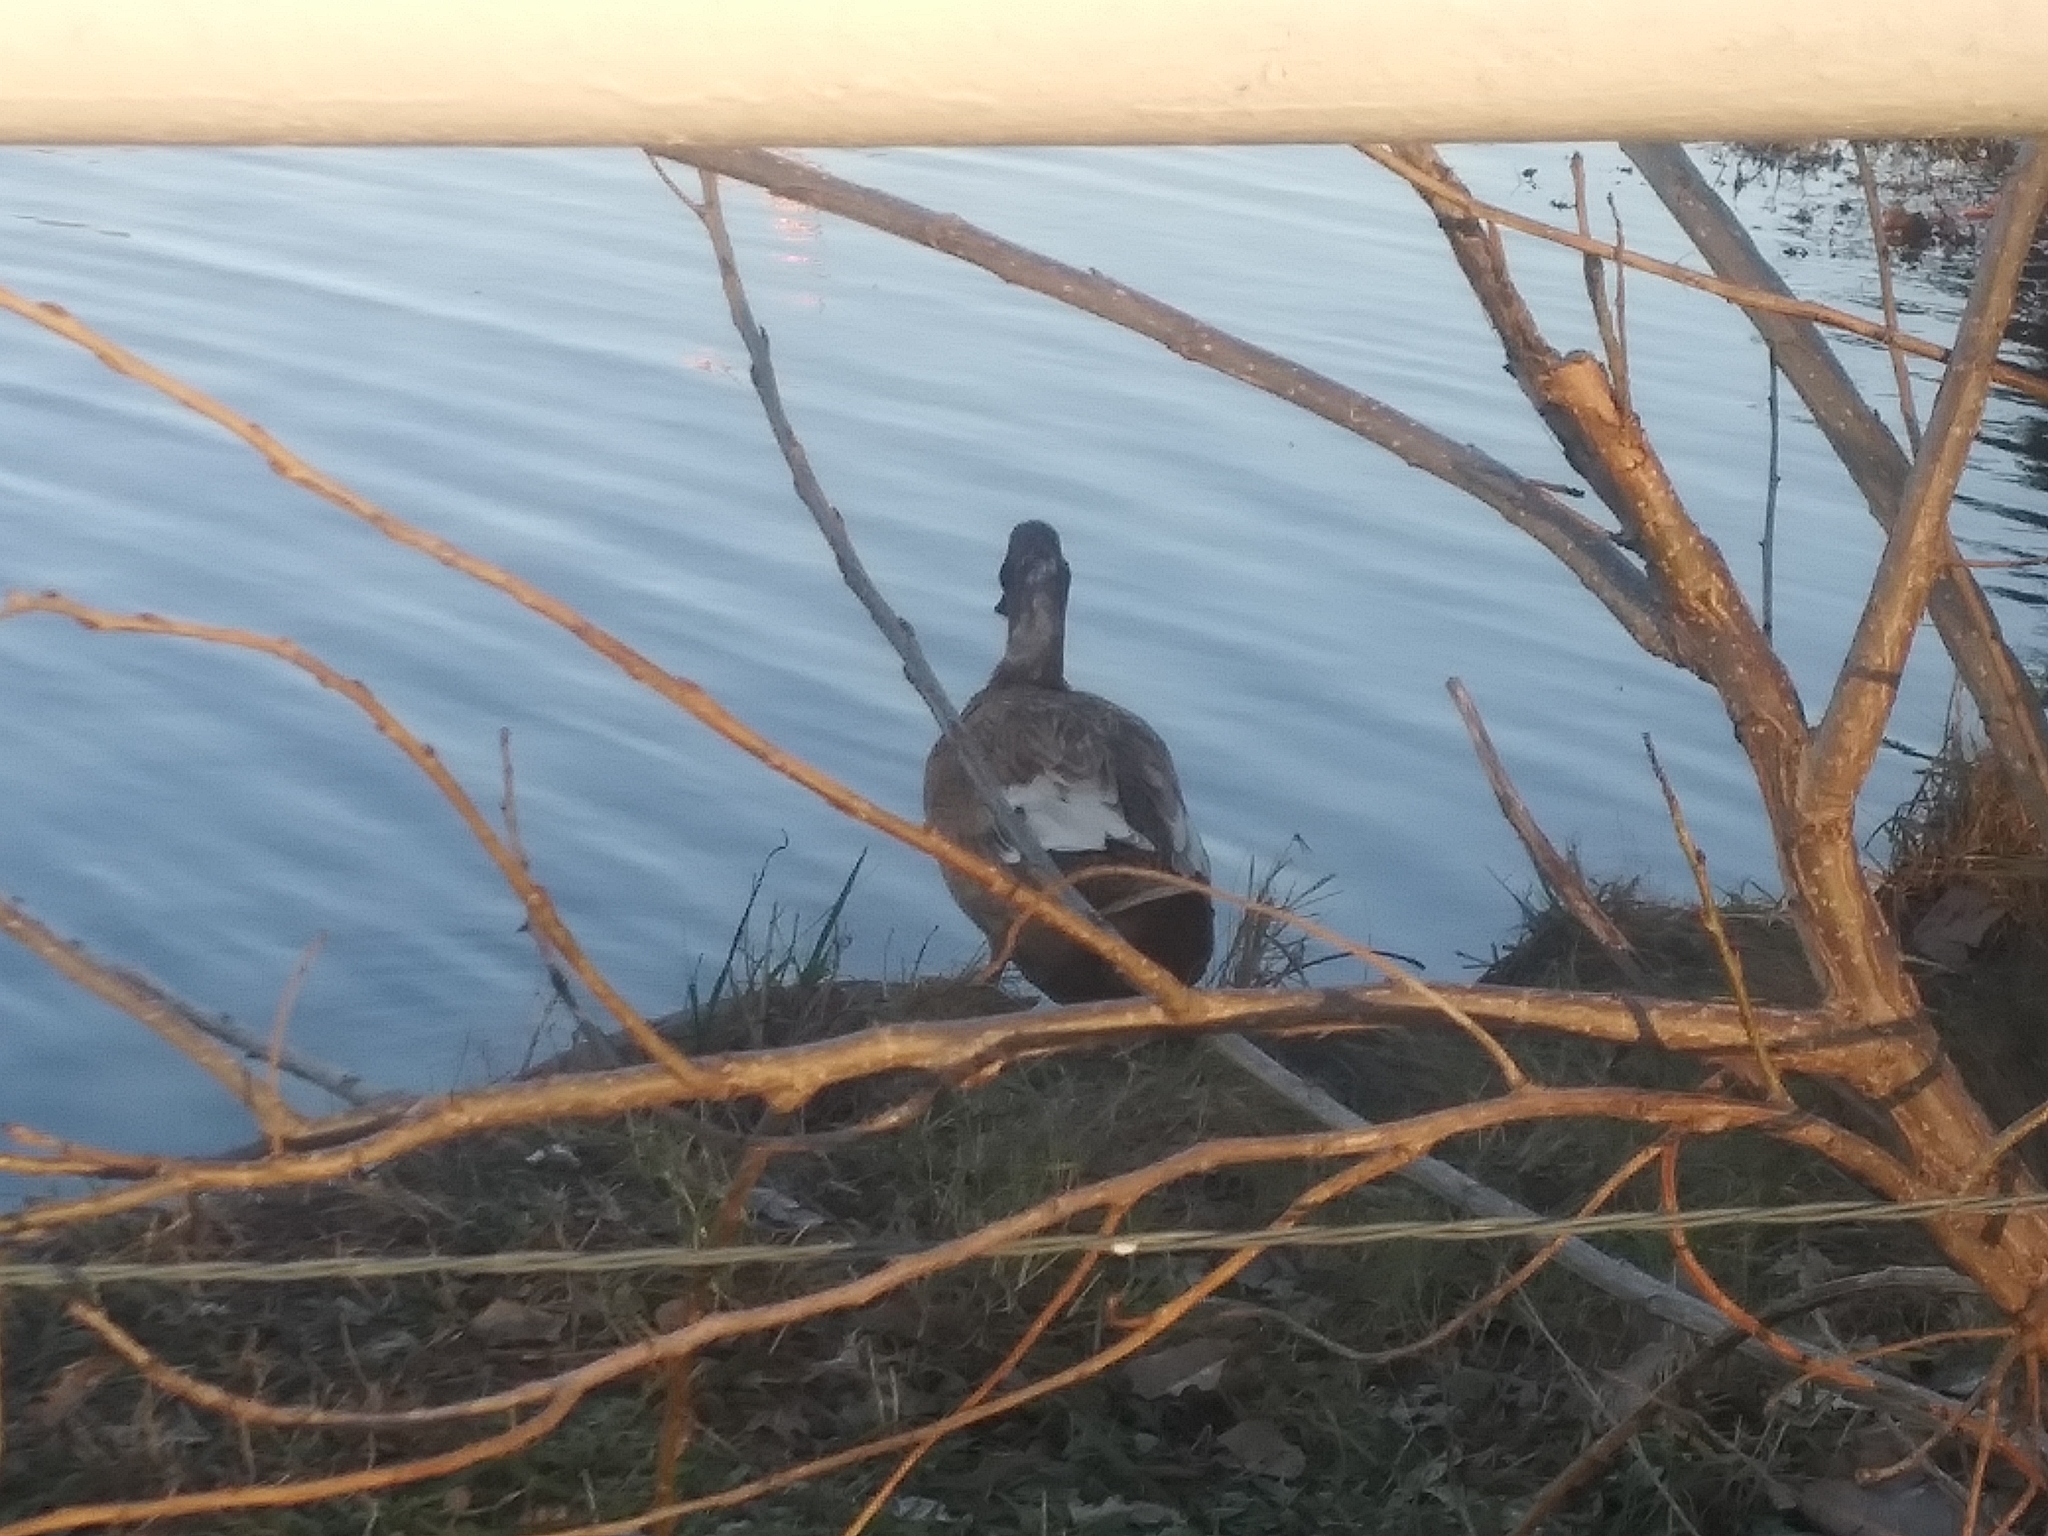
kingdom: Animalia
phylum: Chordata
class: Aves
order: Anseriformes
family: Anatidae
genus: Anas
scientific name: Anas platyrhynchos
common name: Mallard
